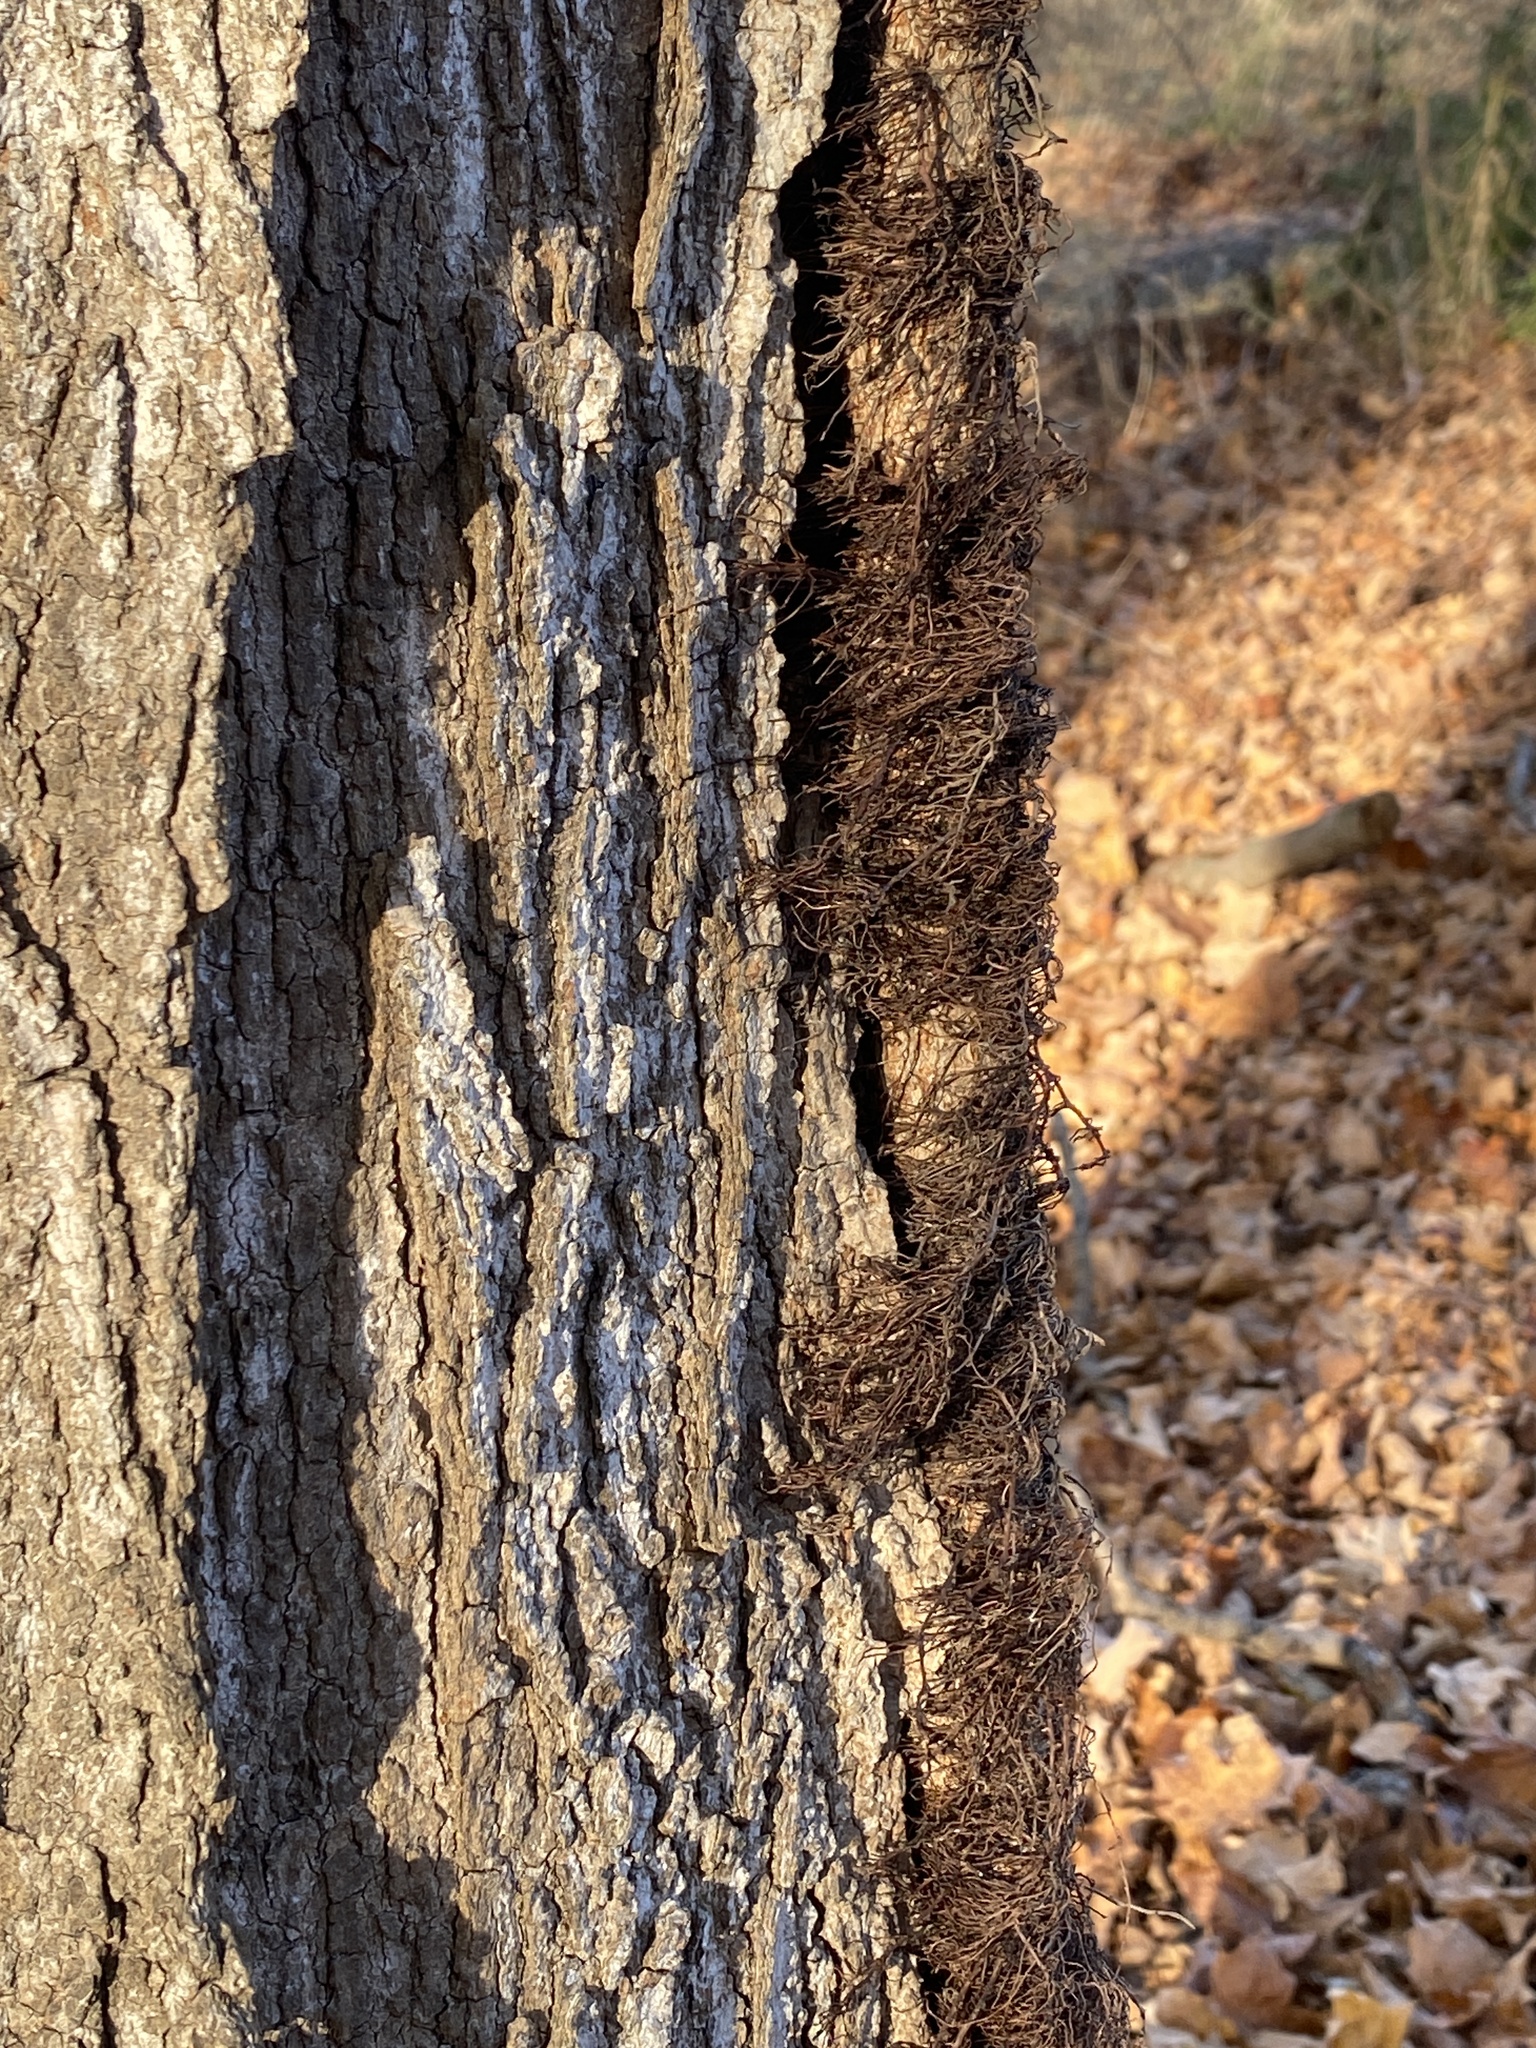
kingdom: Plantae
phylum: Tracheophyta
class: Magnoliopsida
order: Sapindales
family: Anacardiaceae
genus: Toxicodendron
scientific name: Toxicodendron radicans
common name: Poison ivy
